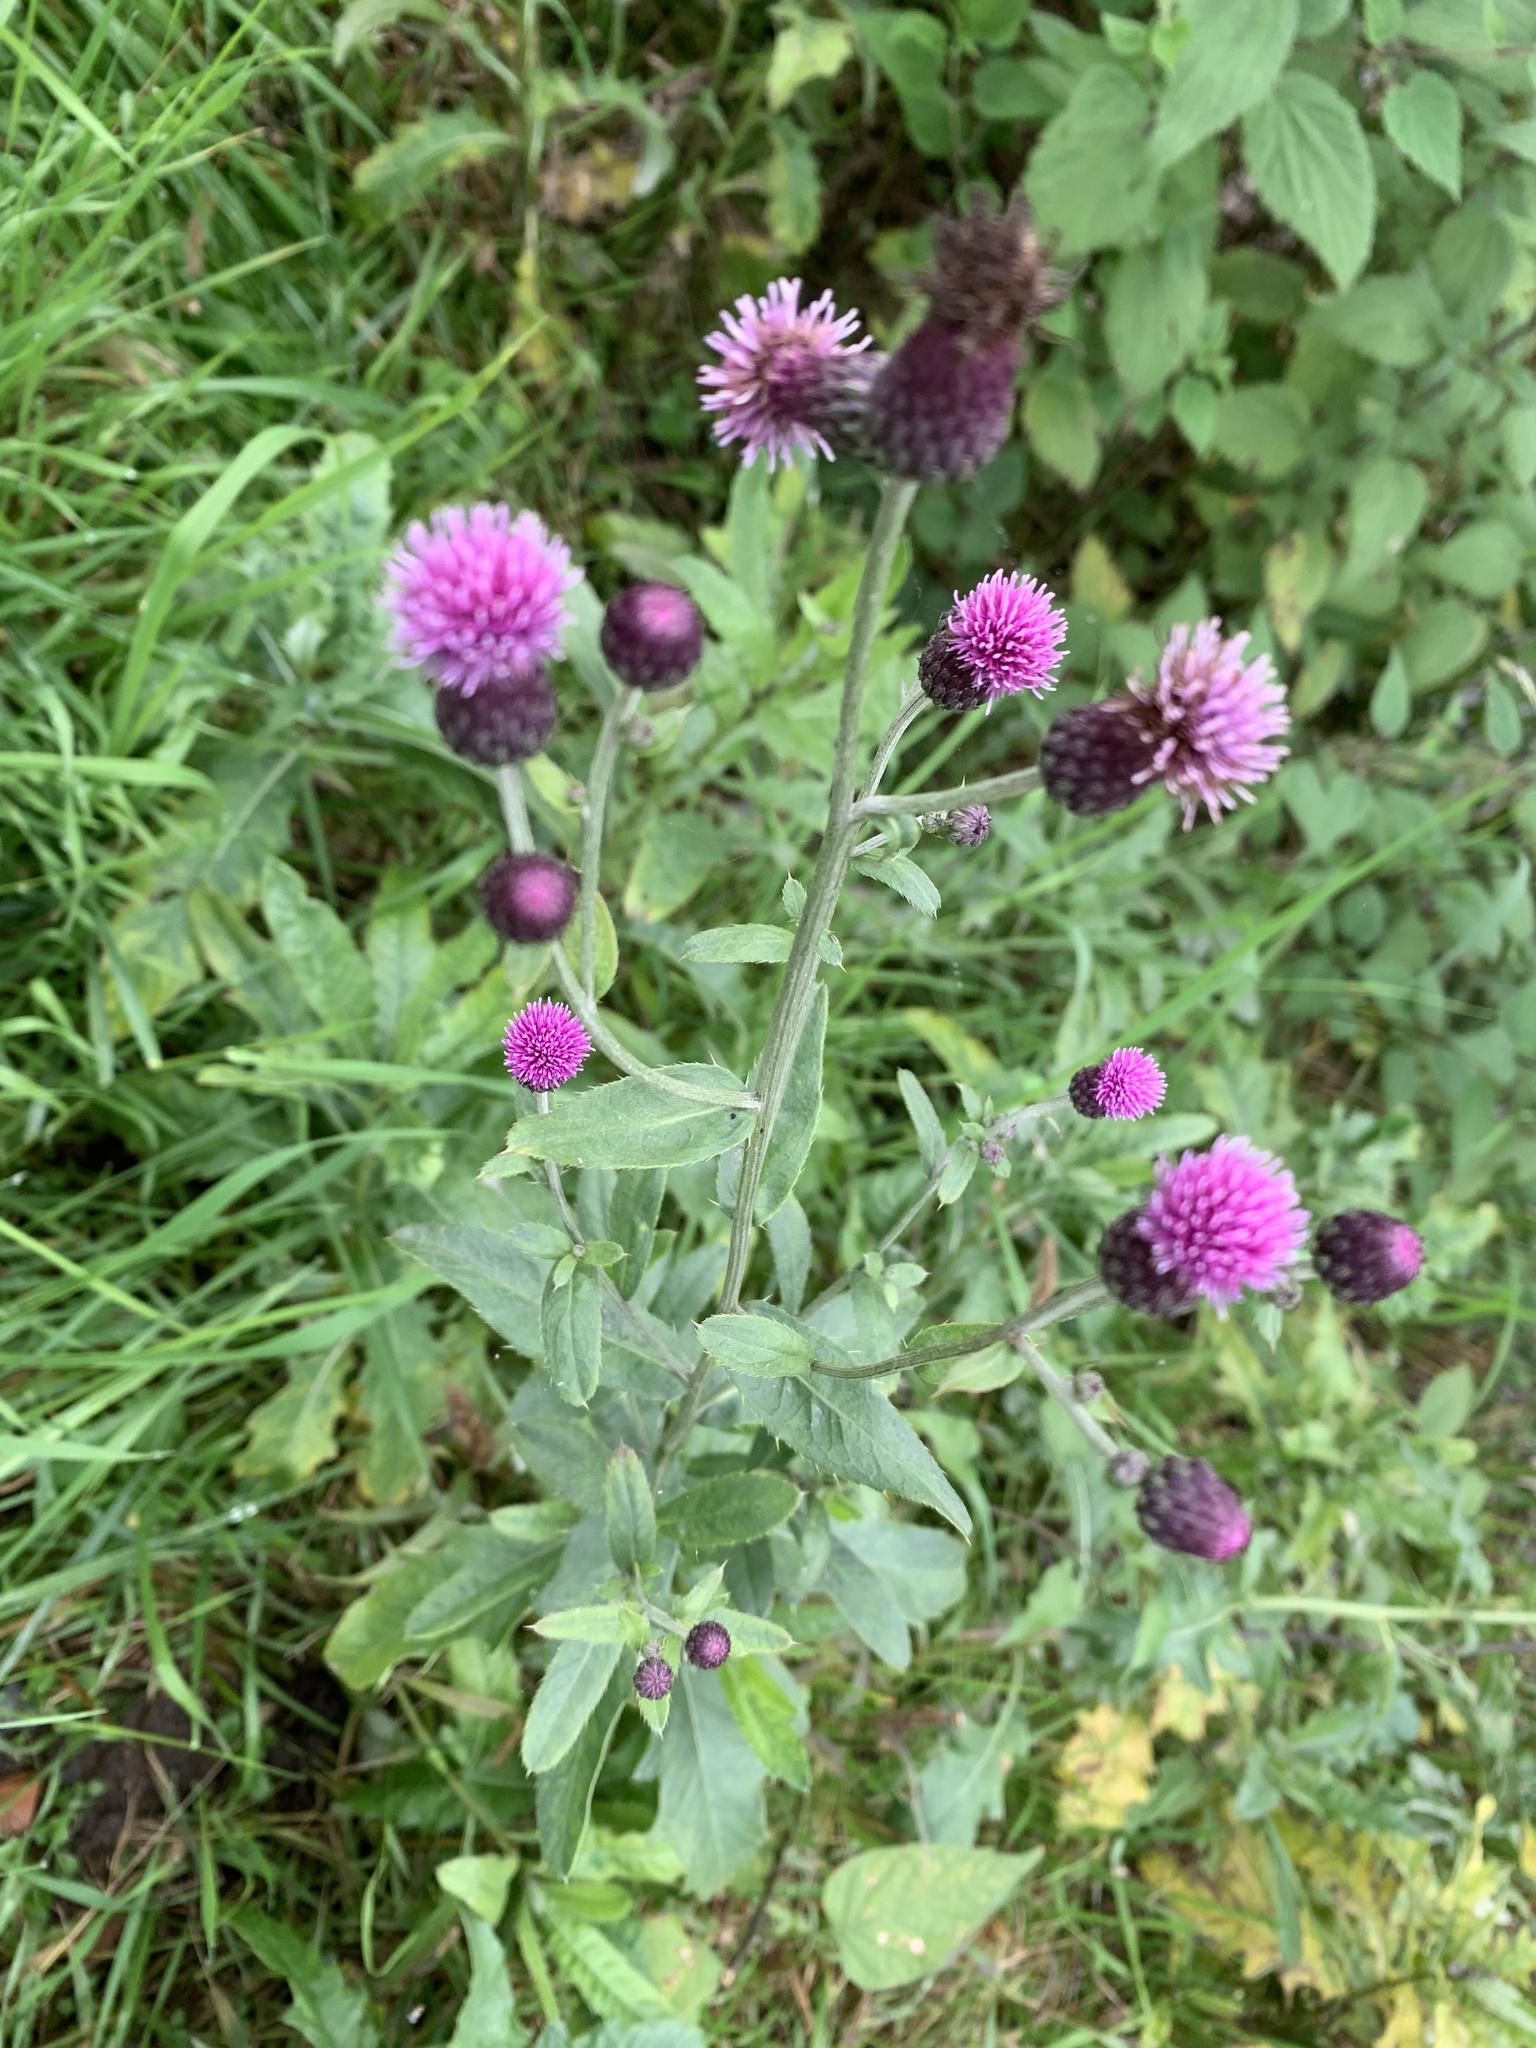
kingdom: Plantae
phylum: Tracheophyta
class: Magnoliopsida
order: Asterales
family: Asteraceae
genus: Cirsium
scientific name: Cirsium arvense
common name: Creeping thistle
